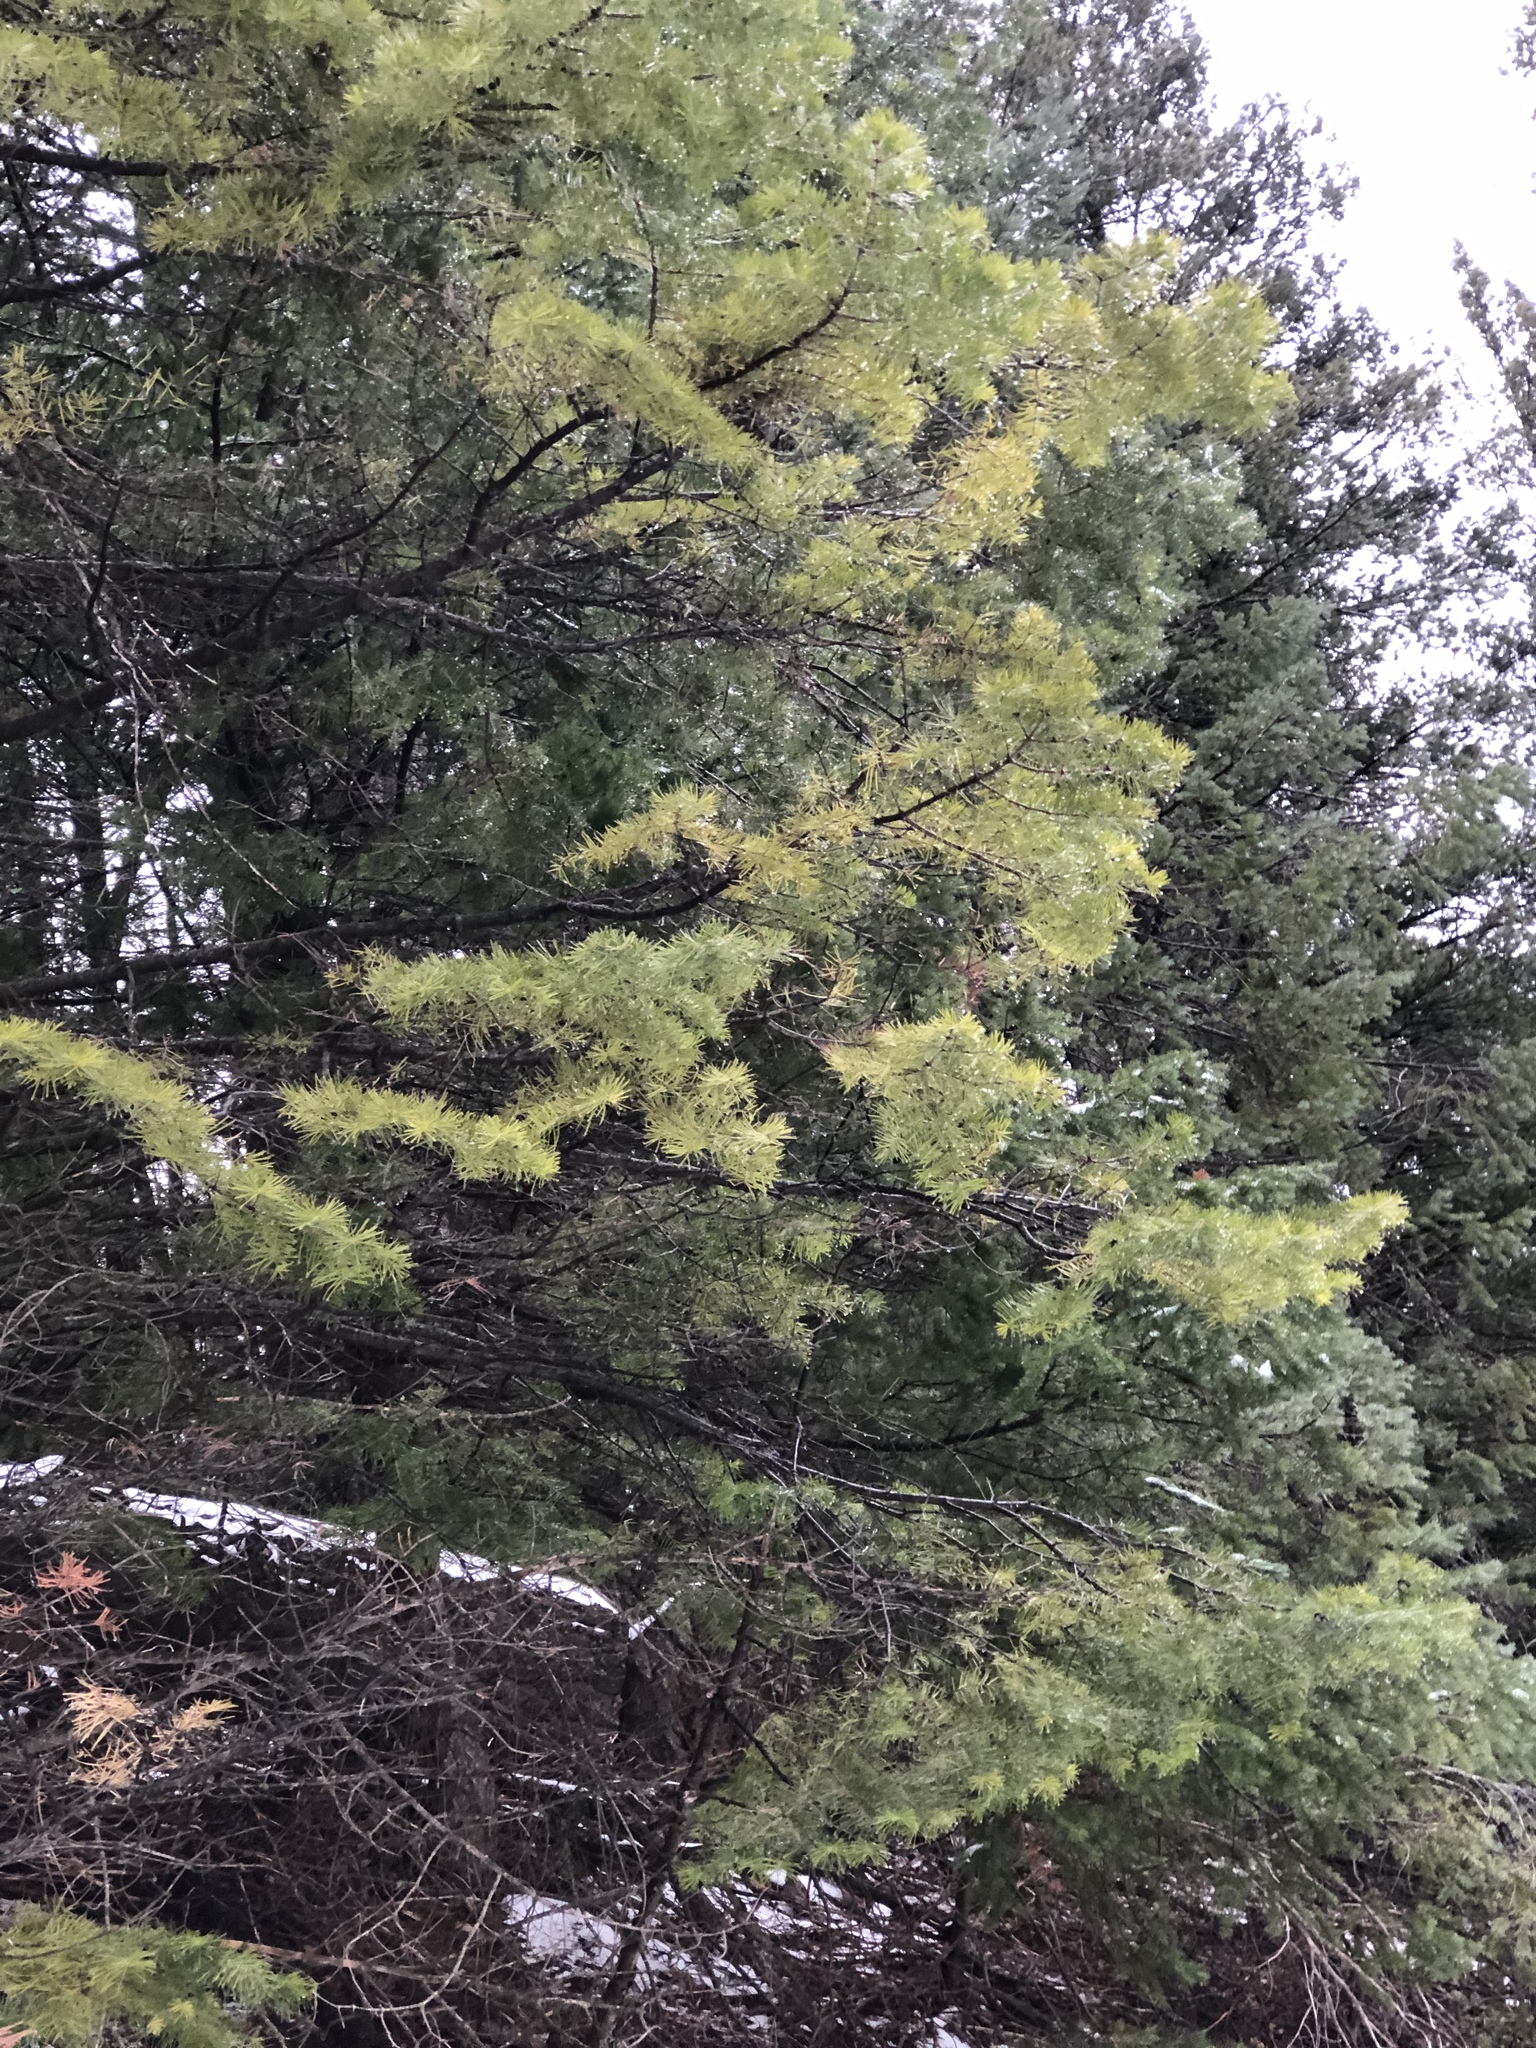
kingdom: Plantae
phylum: Tracheophyta
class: Pinopsida
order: Pinales
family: Pinaceae
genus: Pseudotsuga
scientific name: Pseudotsuga menziesii
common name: Douglas fir
